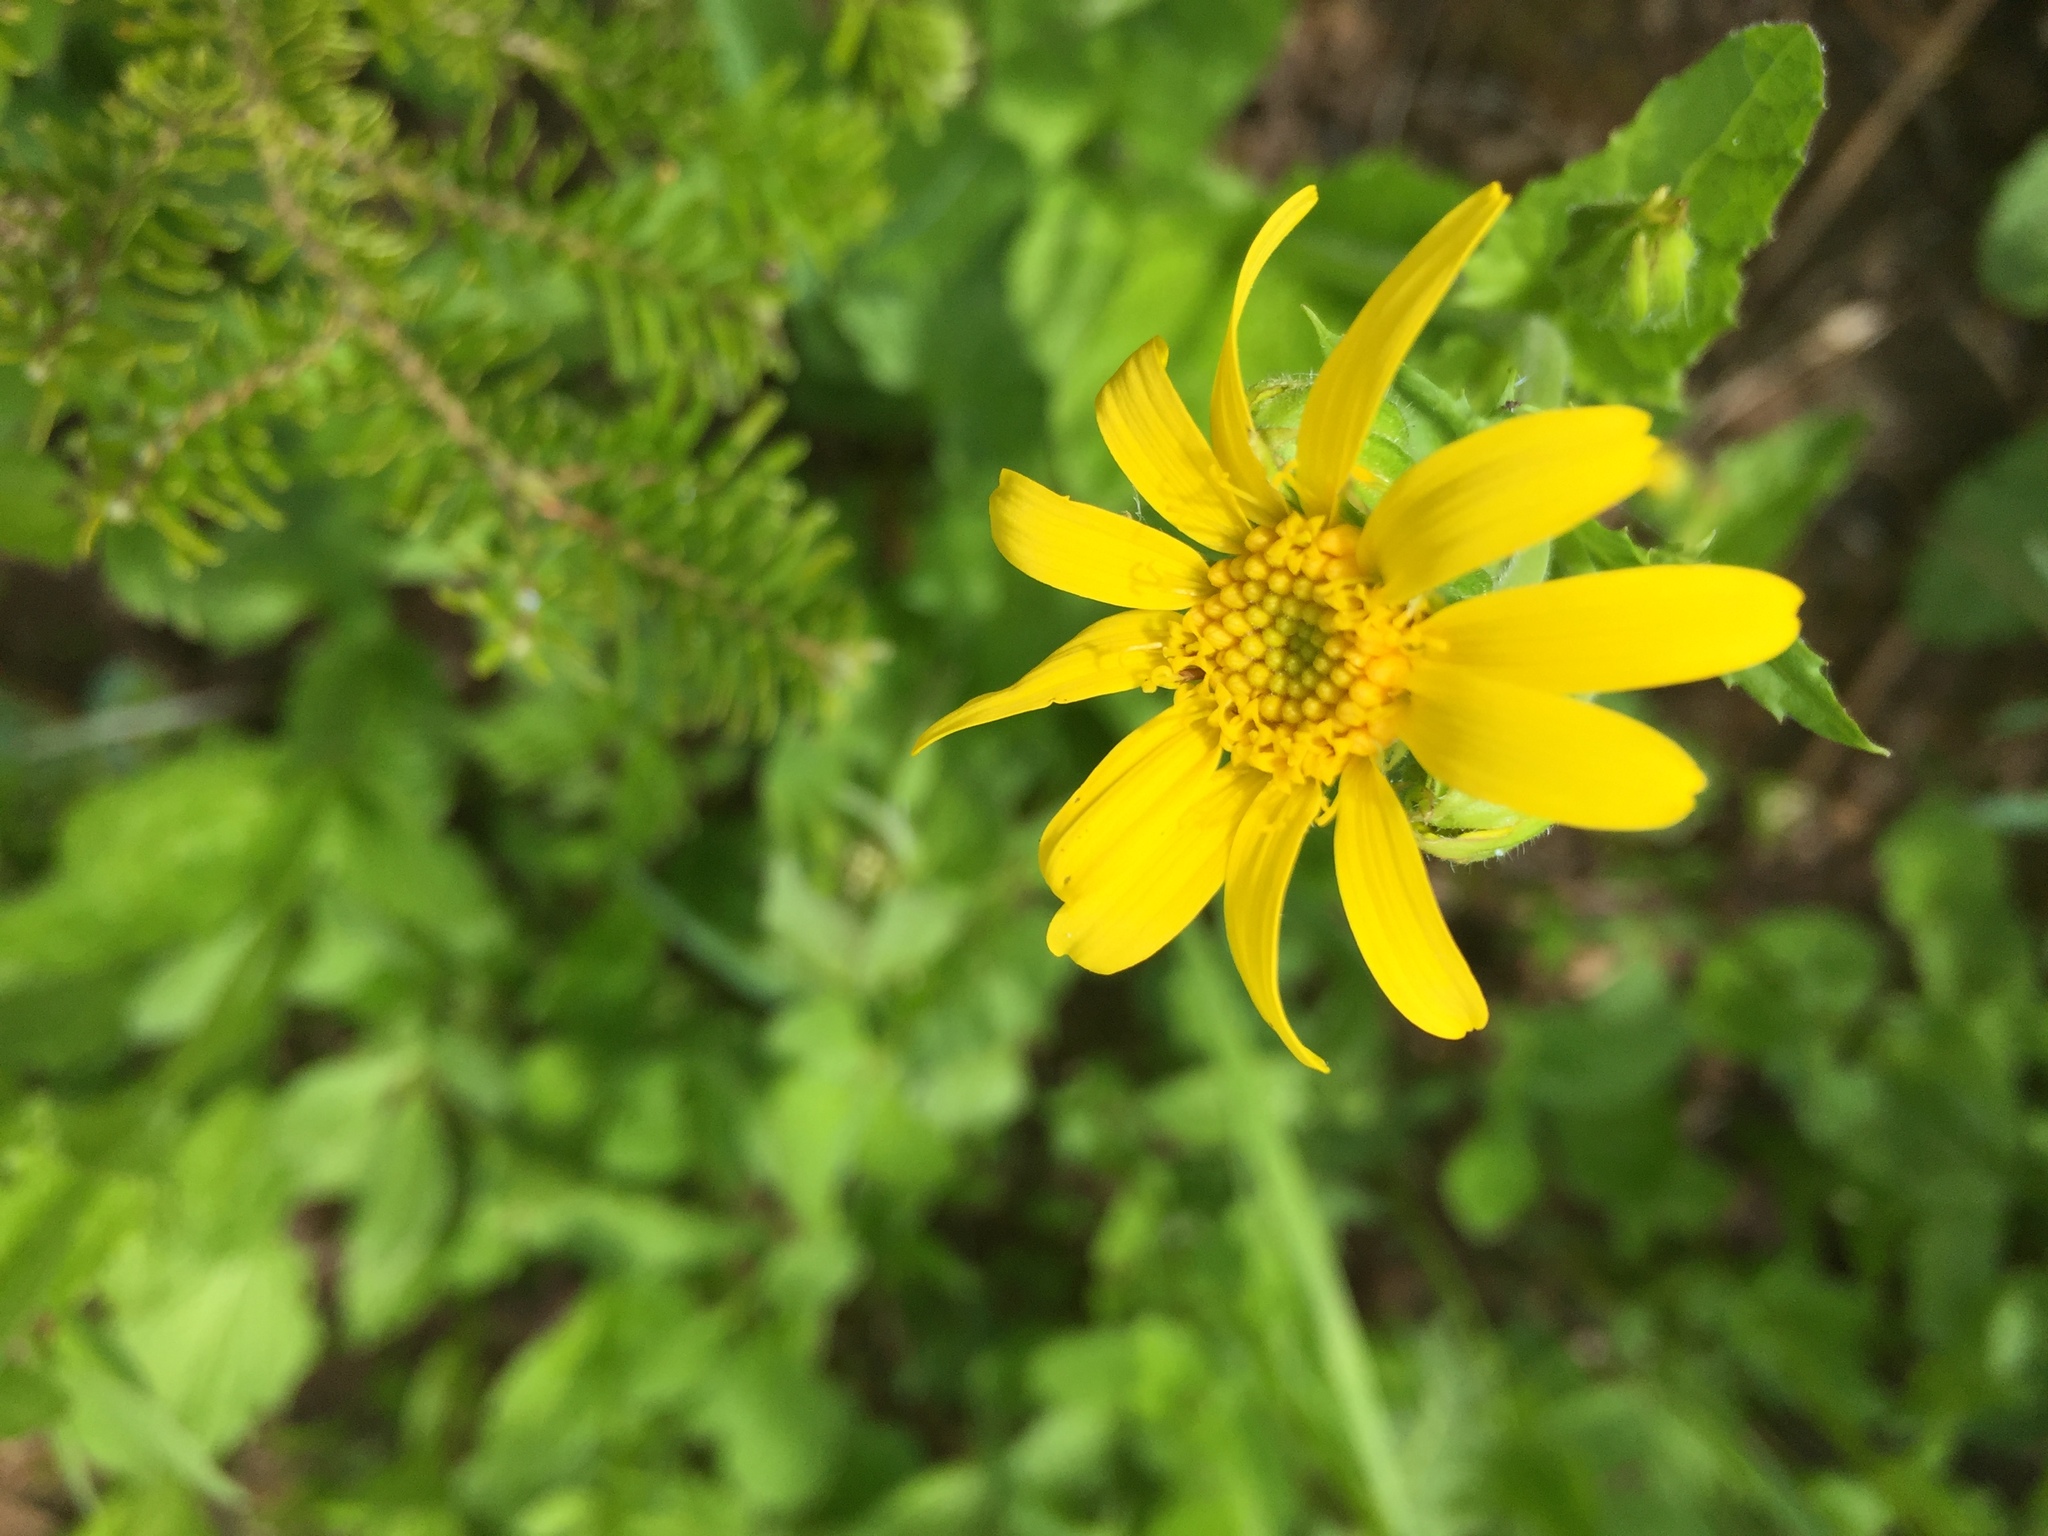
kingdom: Plantae
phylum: Tracheophyta
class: Magnoliopsida
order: Asterales
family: Asteraceae
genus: Jacobaea
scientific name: Jacobaea vulgaris
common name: Stinking willie
